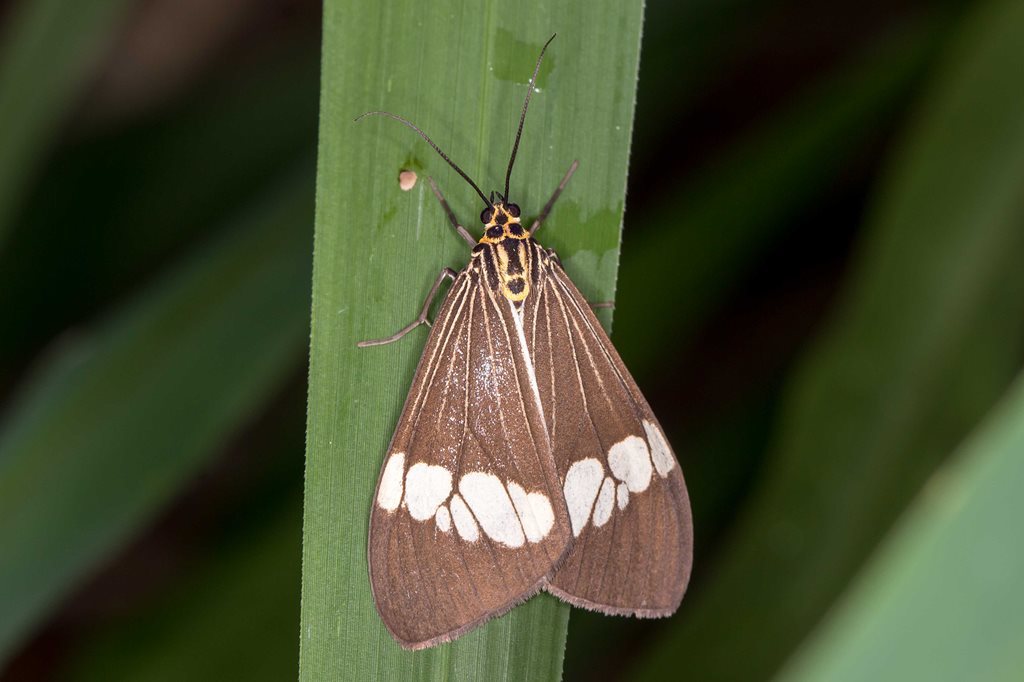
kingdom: Animalia
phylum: Arthropoda
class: Insecta
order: Lepidoptera
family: Erebidae
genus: Nyctemera
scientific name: Nyctemera baulus
